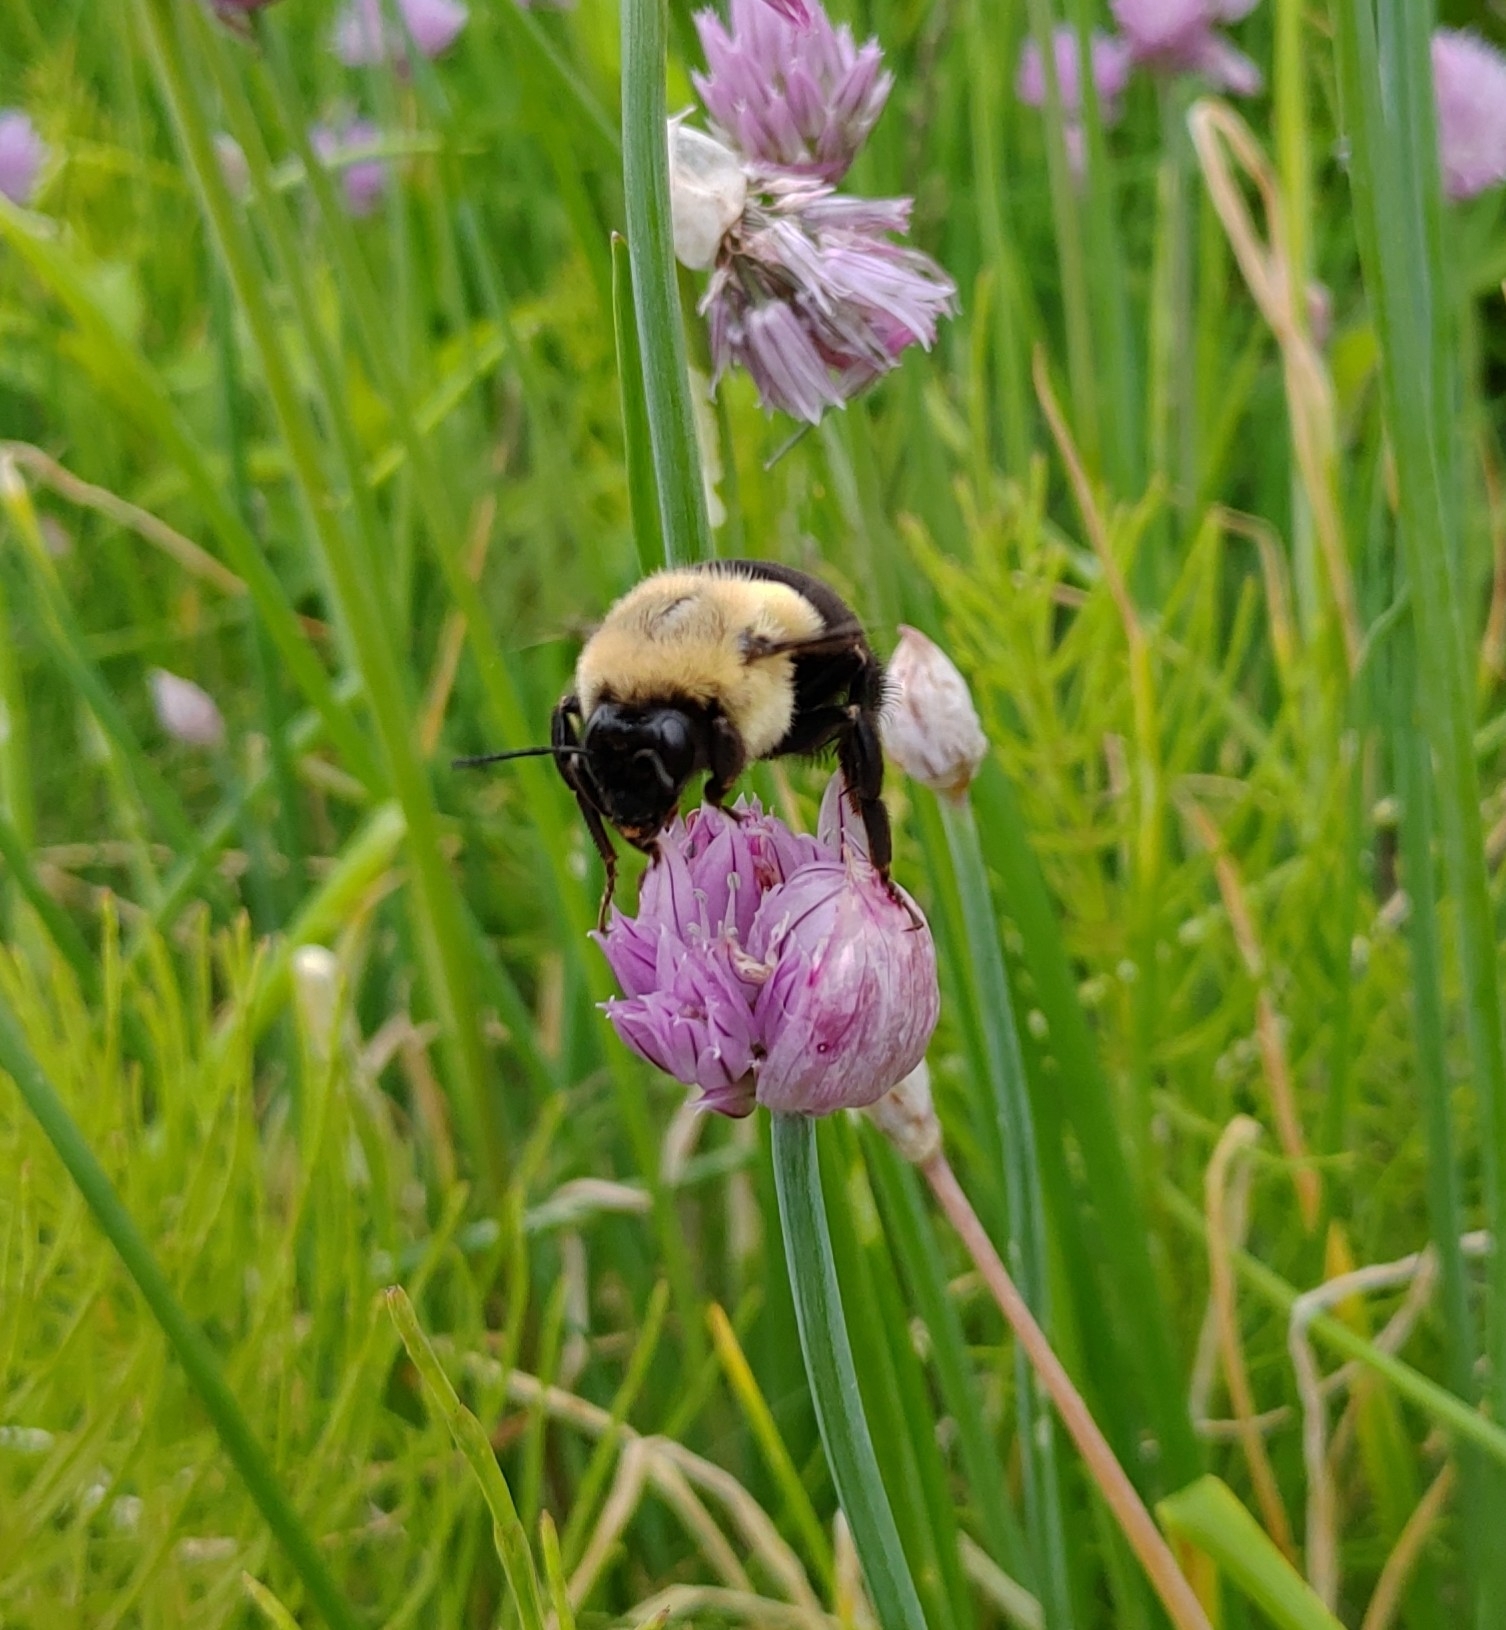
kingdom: Animalia
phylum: Arthropoda
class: Insecta
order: Hymenoptera
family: Apidae
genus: Bombus
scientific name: Bombus impatiens
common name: Common eastern bumble bee
